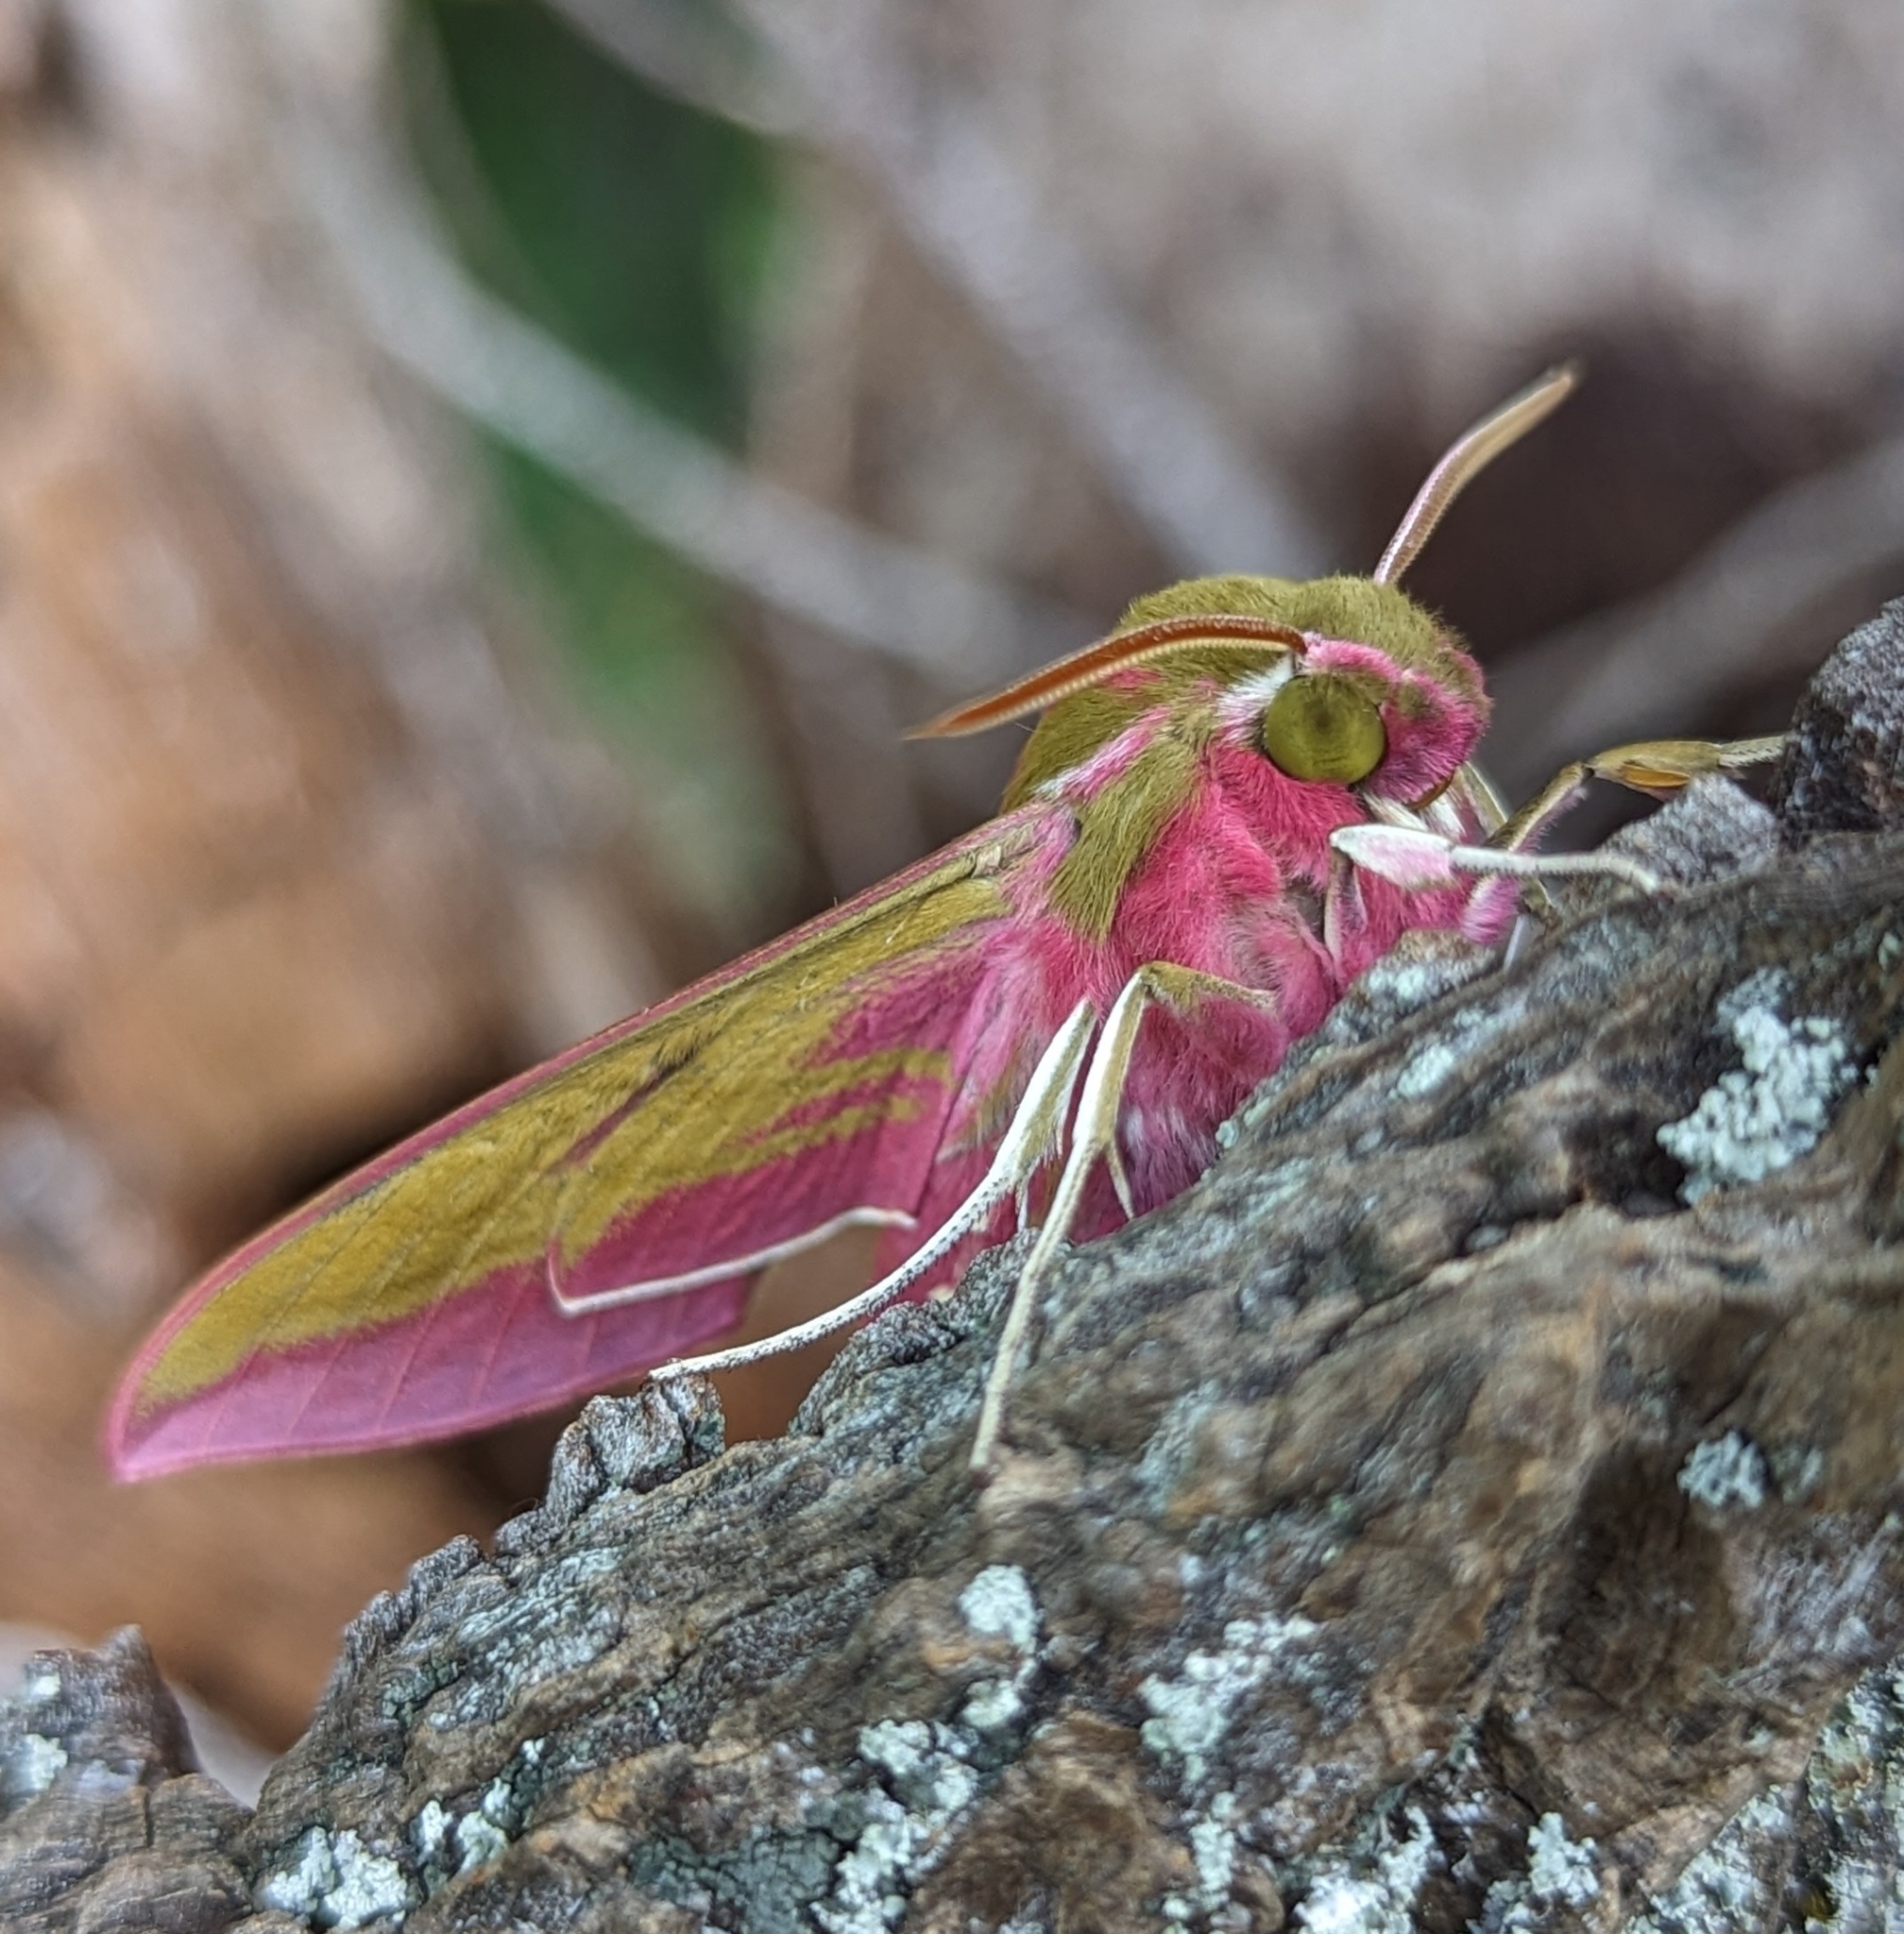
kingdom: Animalia
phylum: Arthropoda
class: Insecta
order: Lepidoptera
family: Sphingidae
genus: Deilephila
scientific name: Deilephila elpenor
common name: Elephant hawk-moth
